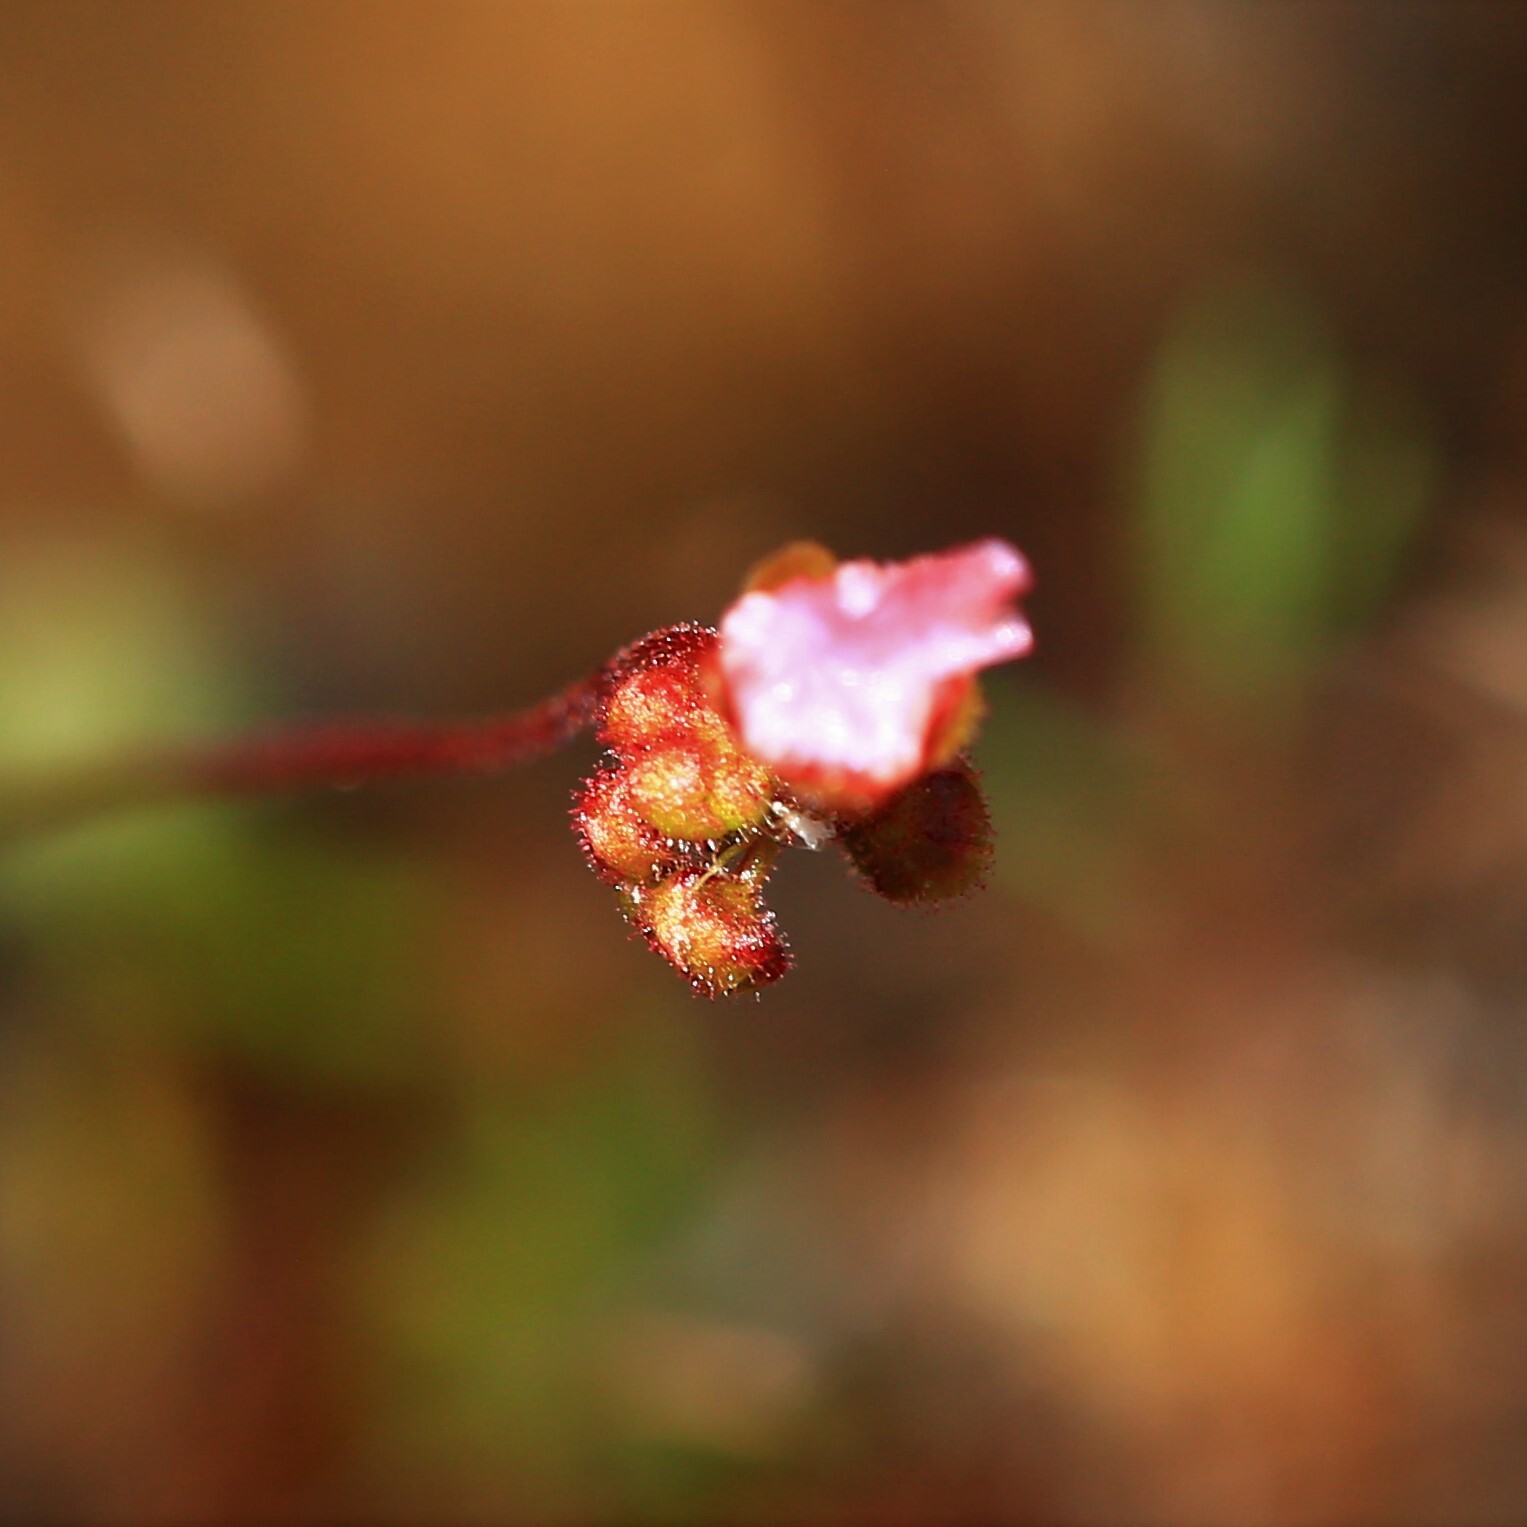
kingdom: Plantae
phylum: Tracheophyta
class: Magnoliopsida
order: Caryophyllales
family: Droseraceae
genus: Drosera
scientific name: Drosera closterostigma
